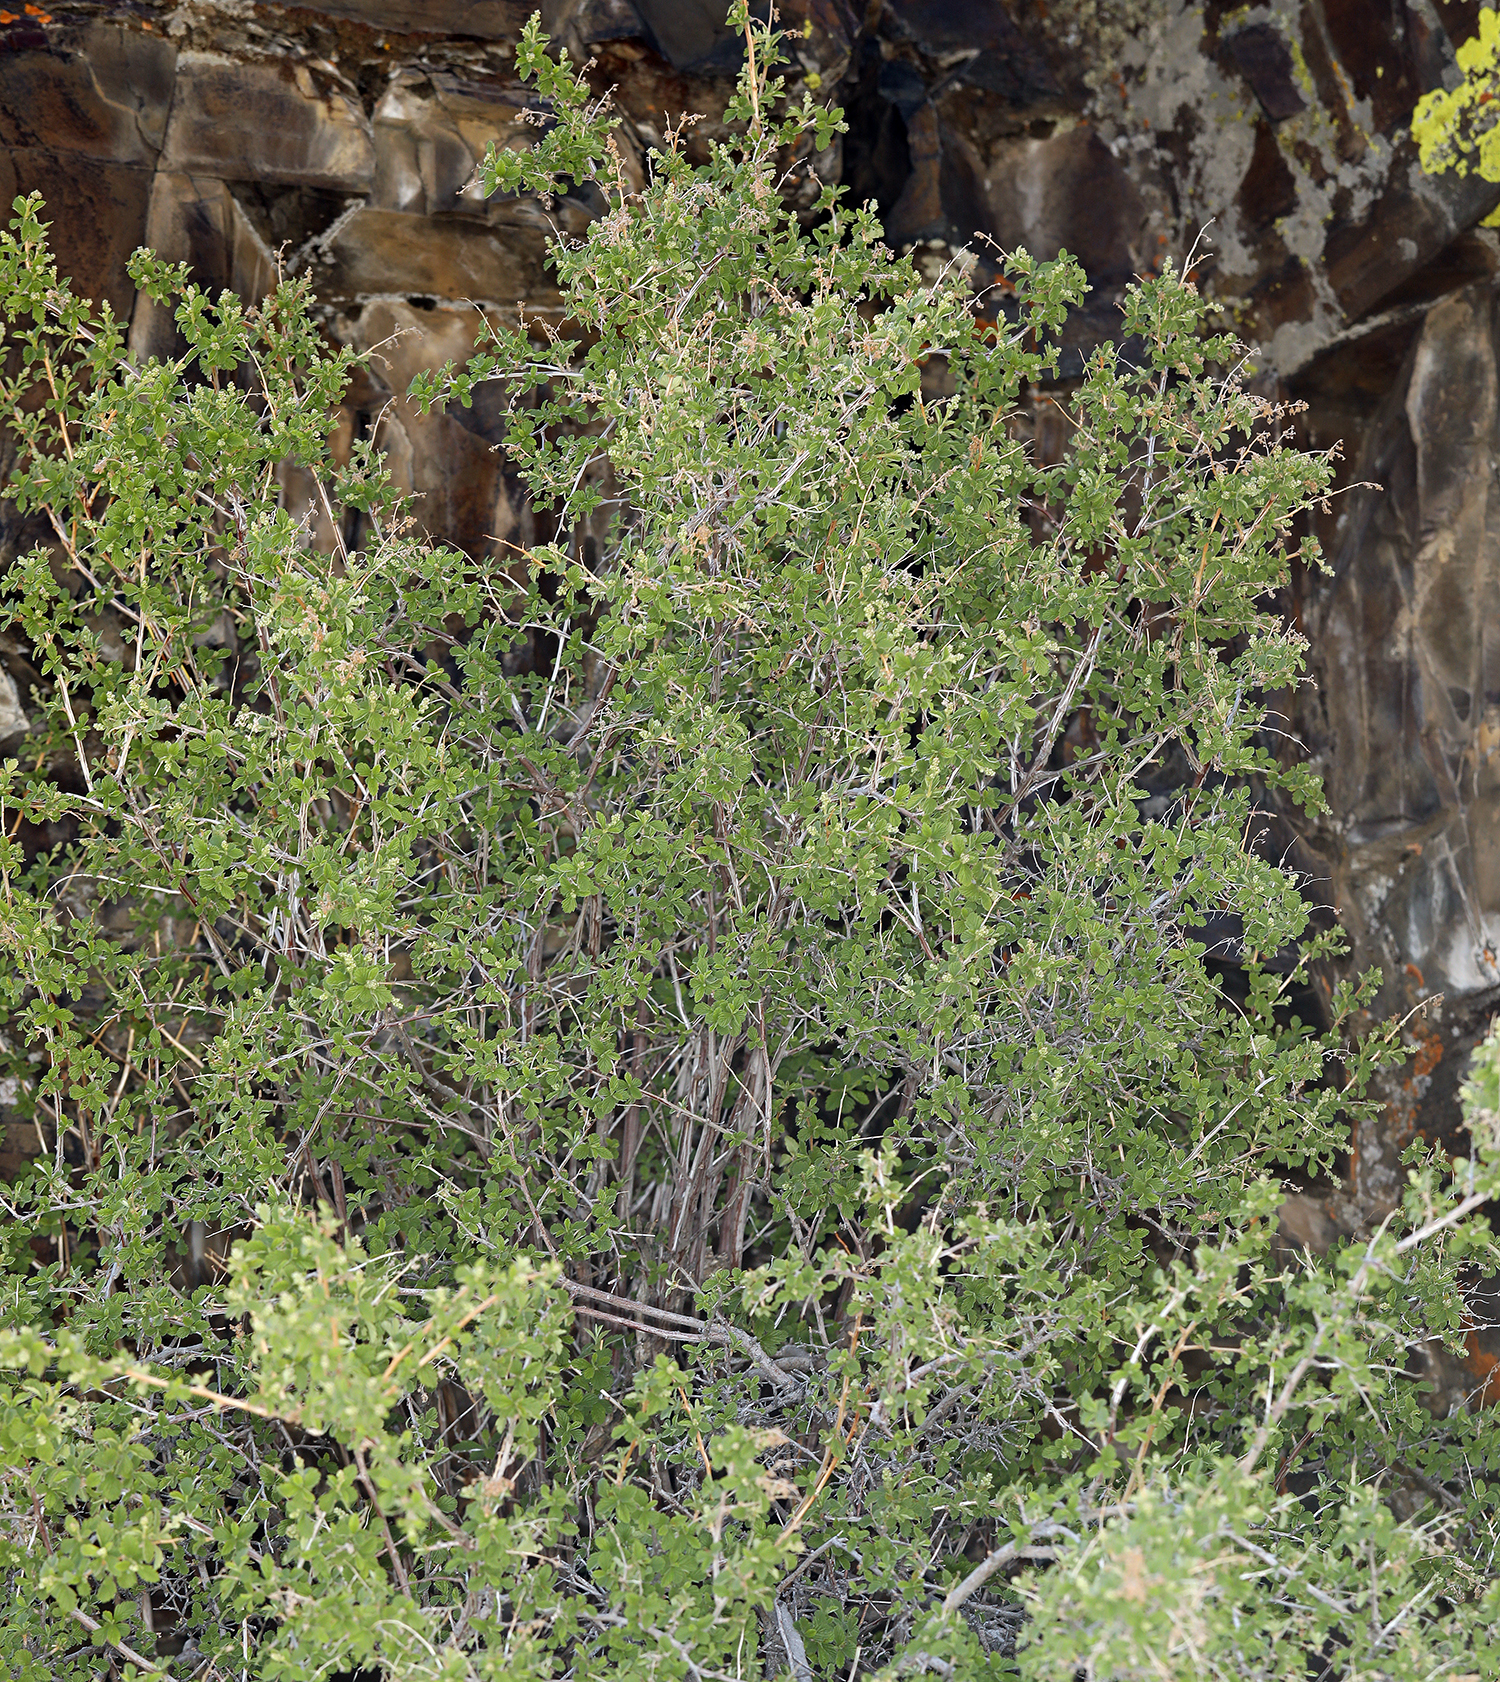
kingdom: Plantae
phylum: Tracheophyta
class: Magnoliopsida
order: Rosales
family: Rosaceae
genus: Holodiscus
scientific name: Holodiscus discolor
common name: Oceanspray
